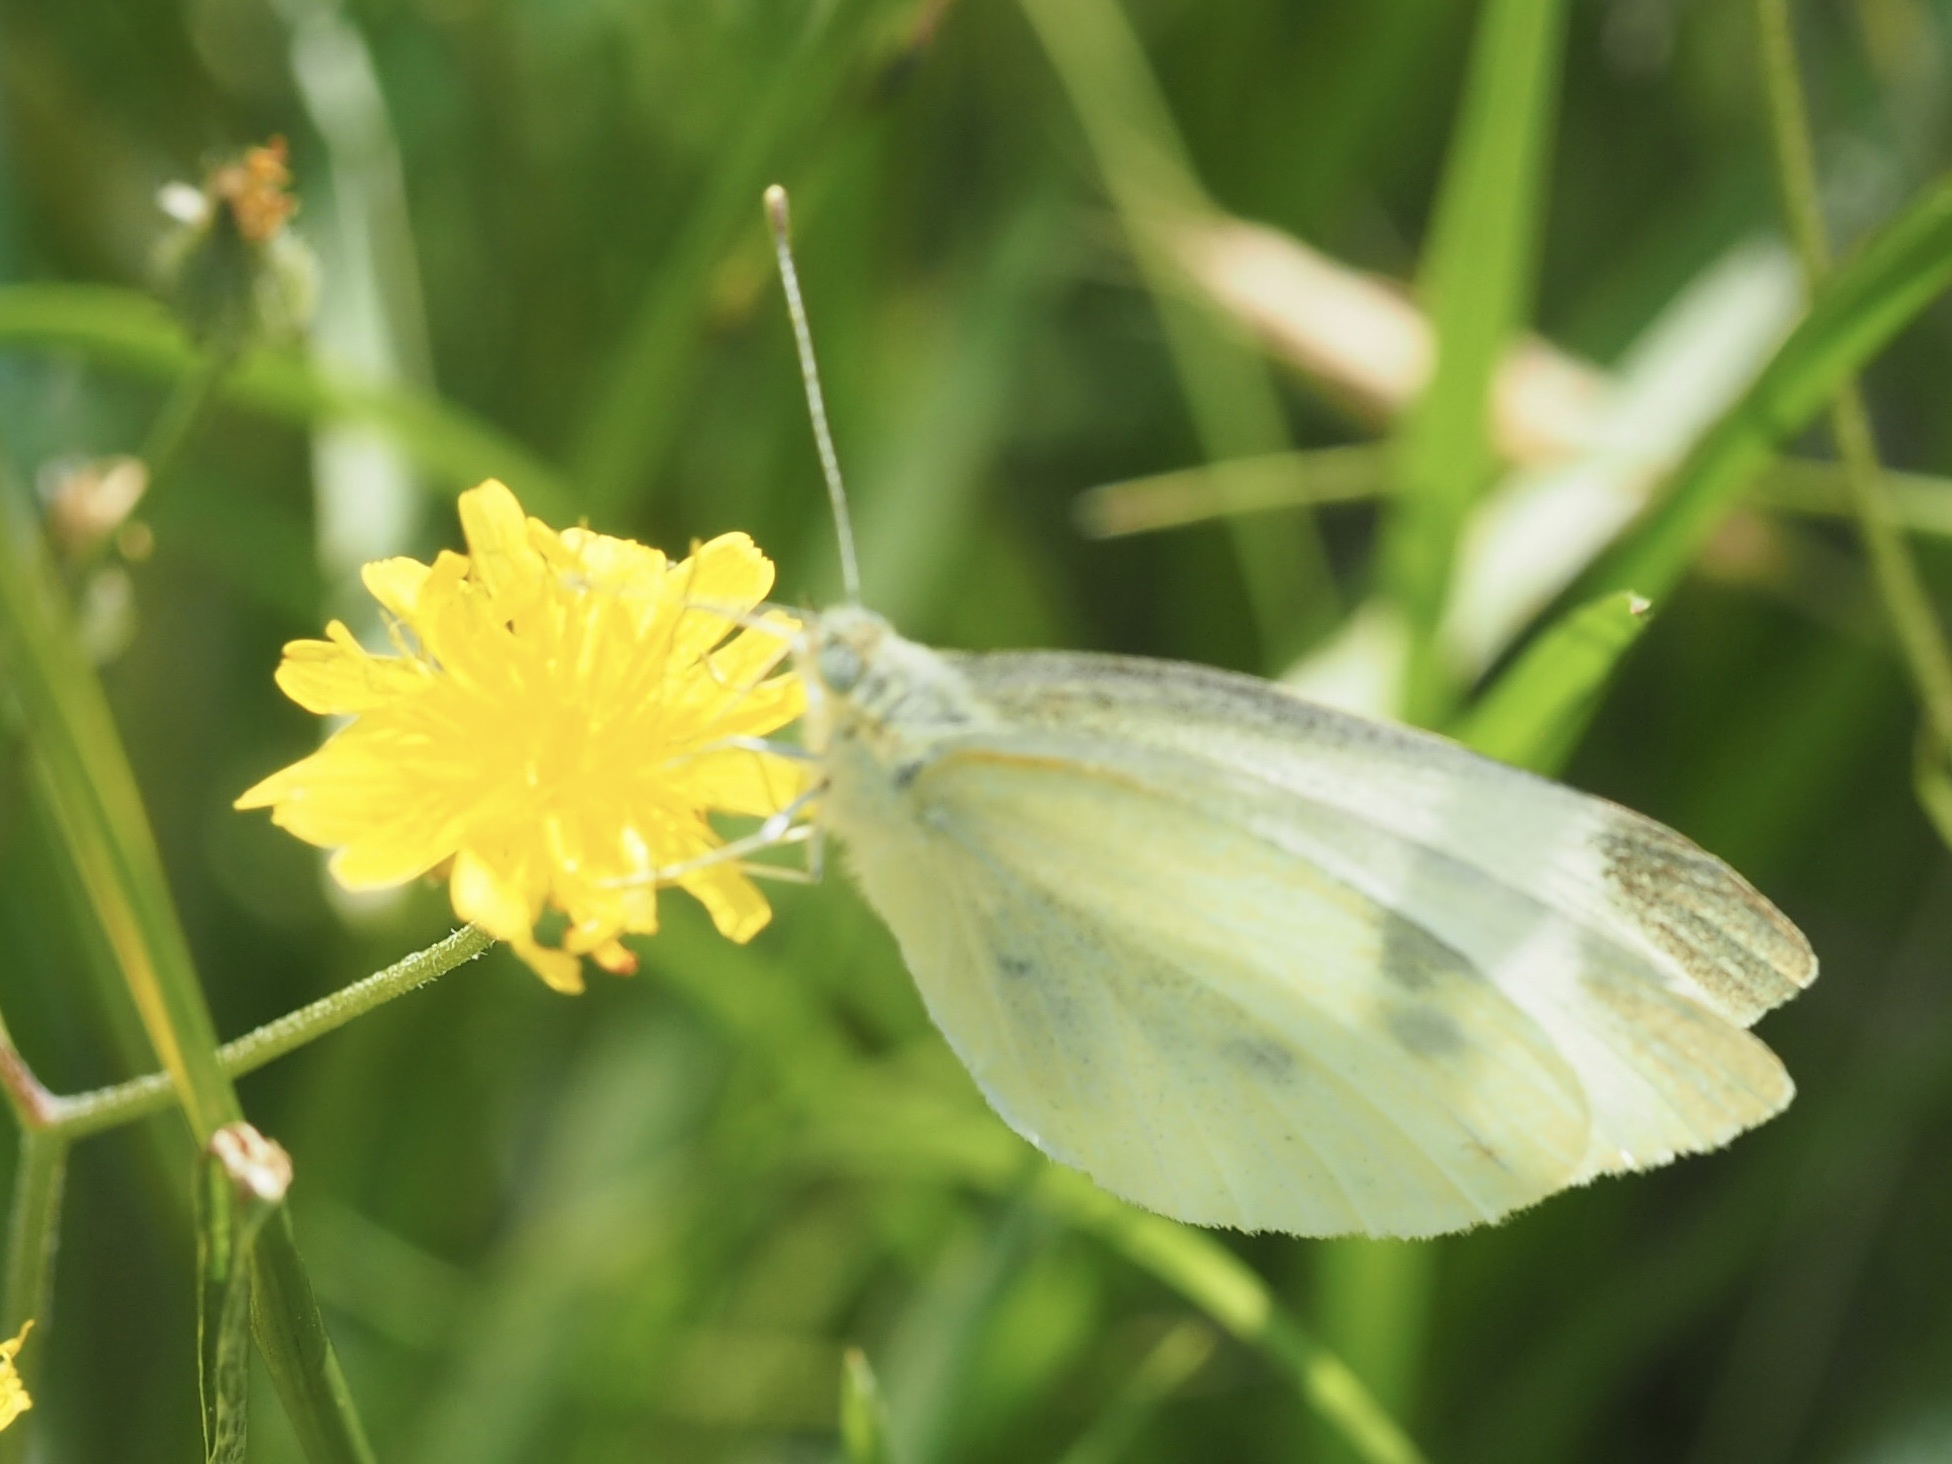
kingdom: Animalia
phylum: Arthropoda
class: Insecta
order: Lepidoptera
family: Pieridae
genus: Pieris
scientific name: Pieris rapae
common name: Small white
